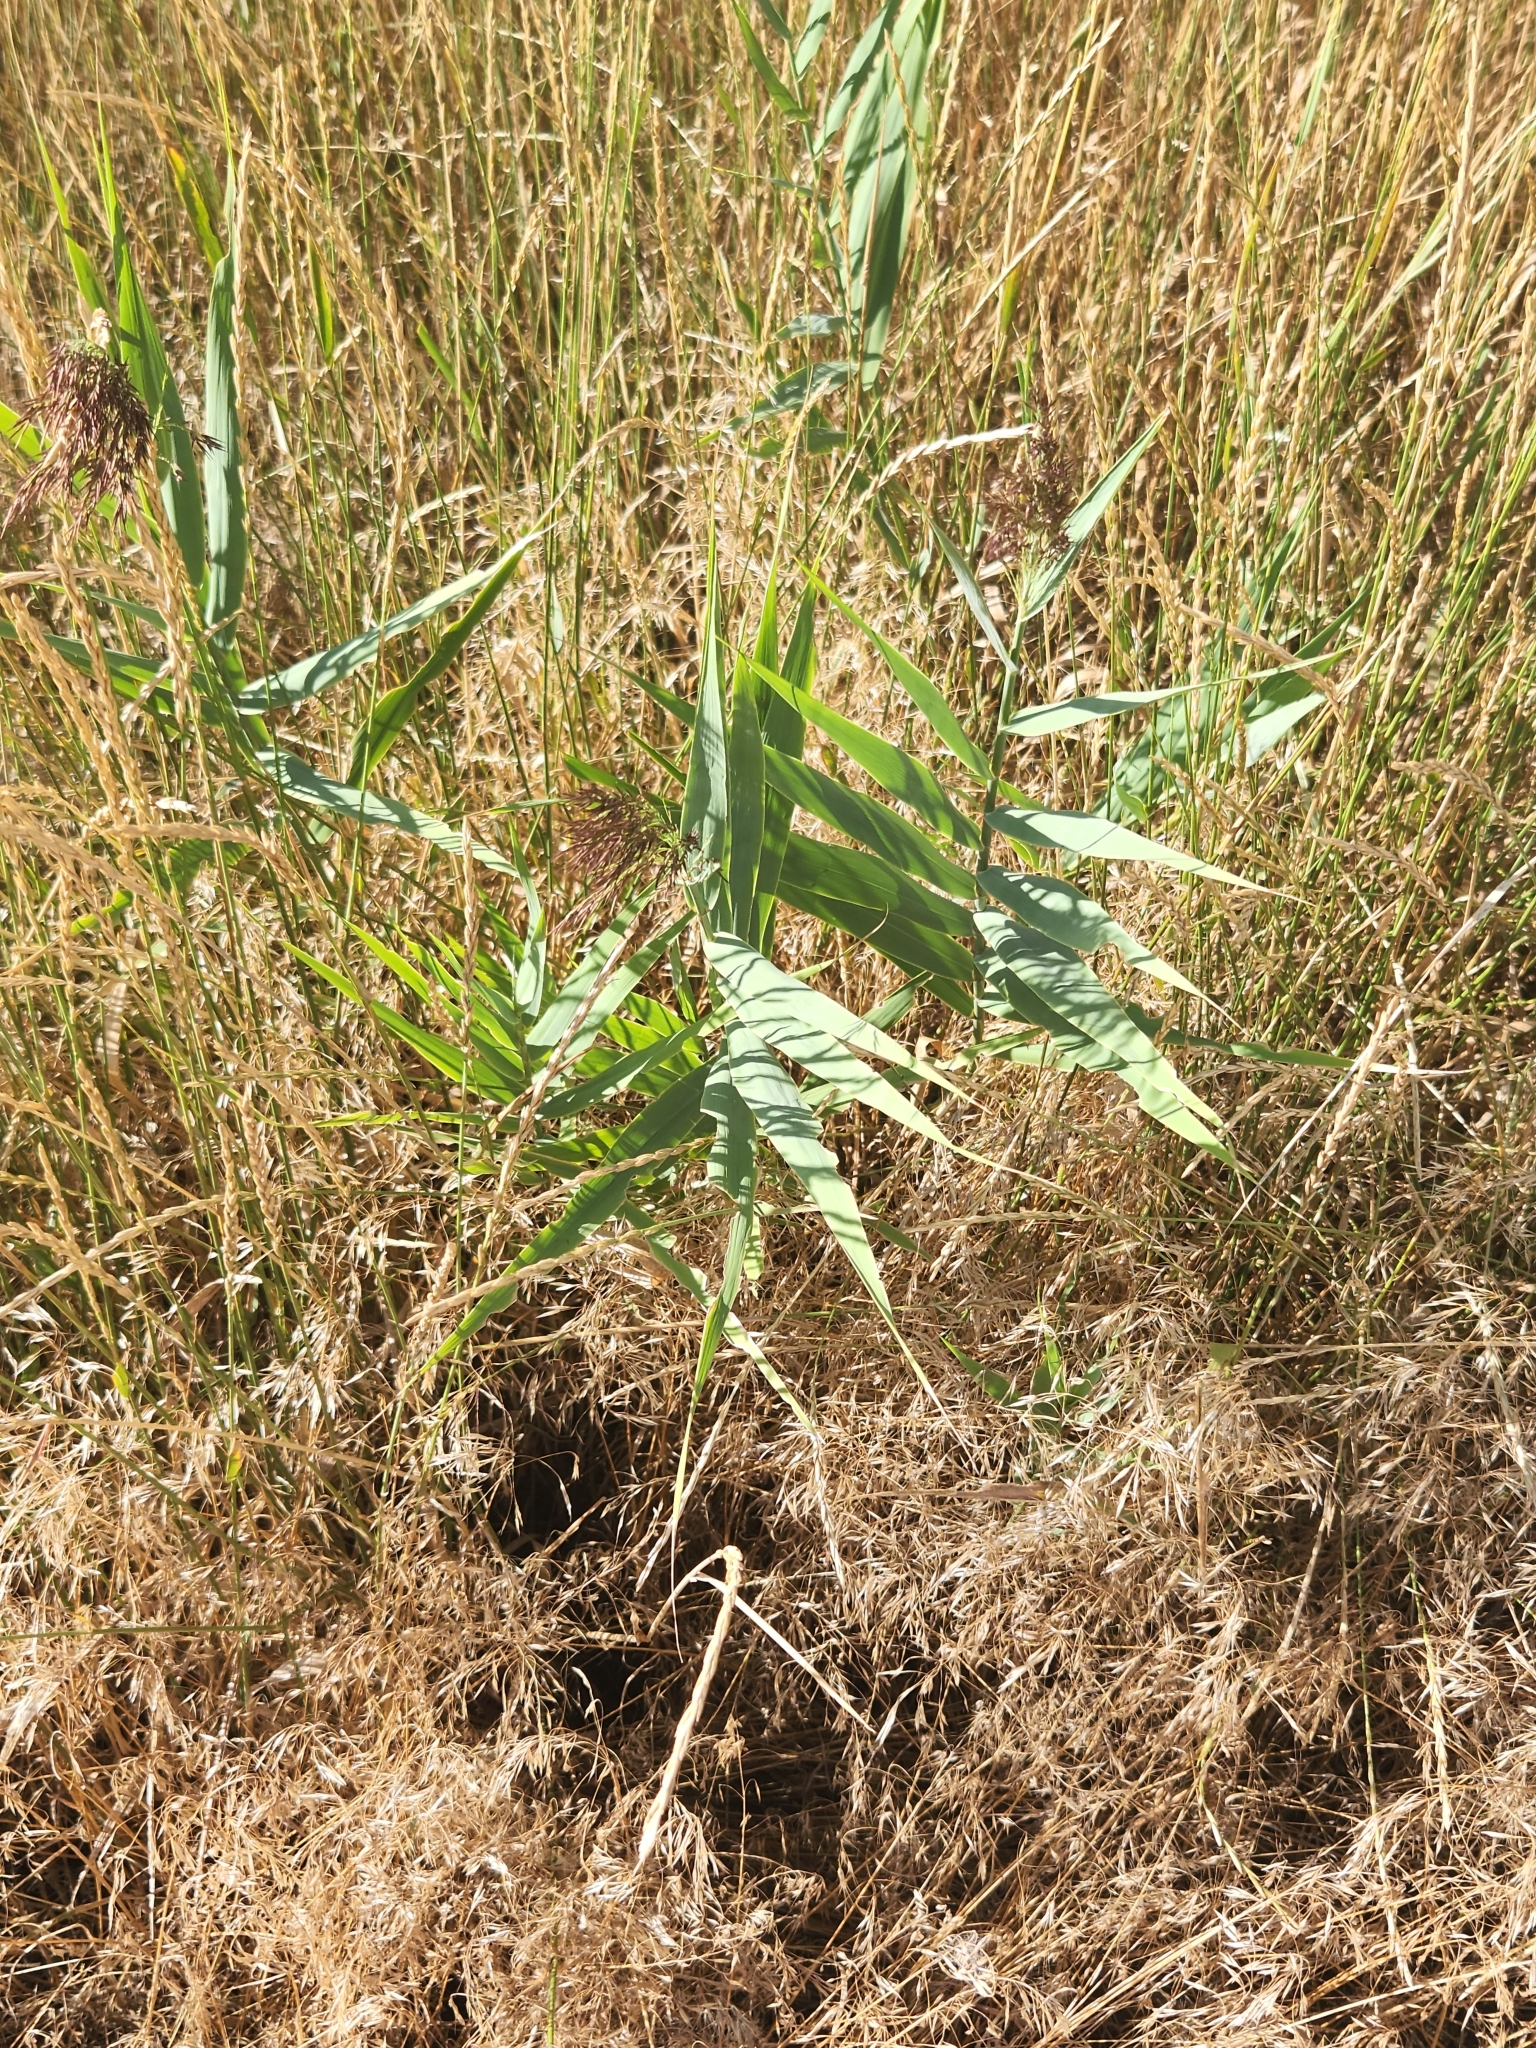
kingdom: Plantae
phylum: Tracheophyta
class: Liliopsida
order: Poales
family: Poaceae
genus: Phragmites
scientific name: Phragmites australis
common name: Common reed
